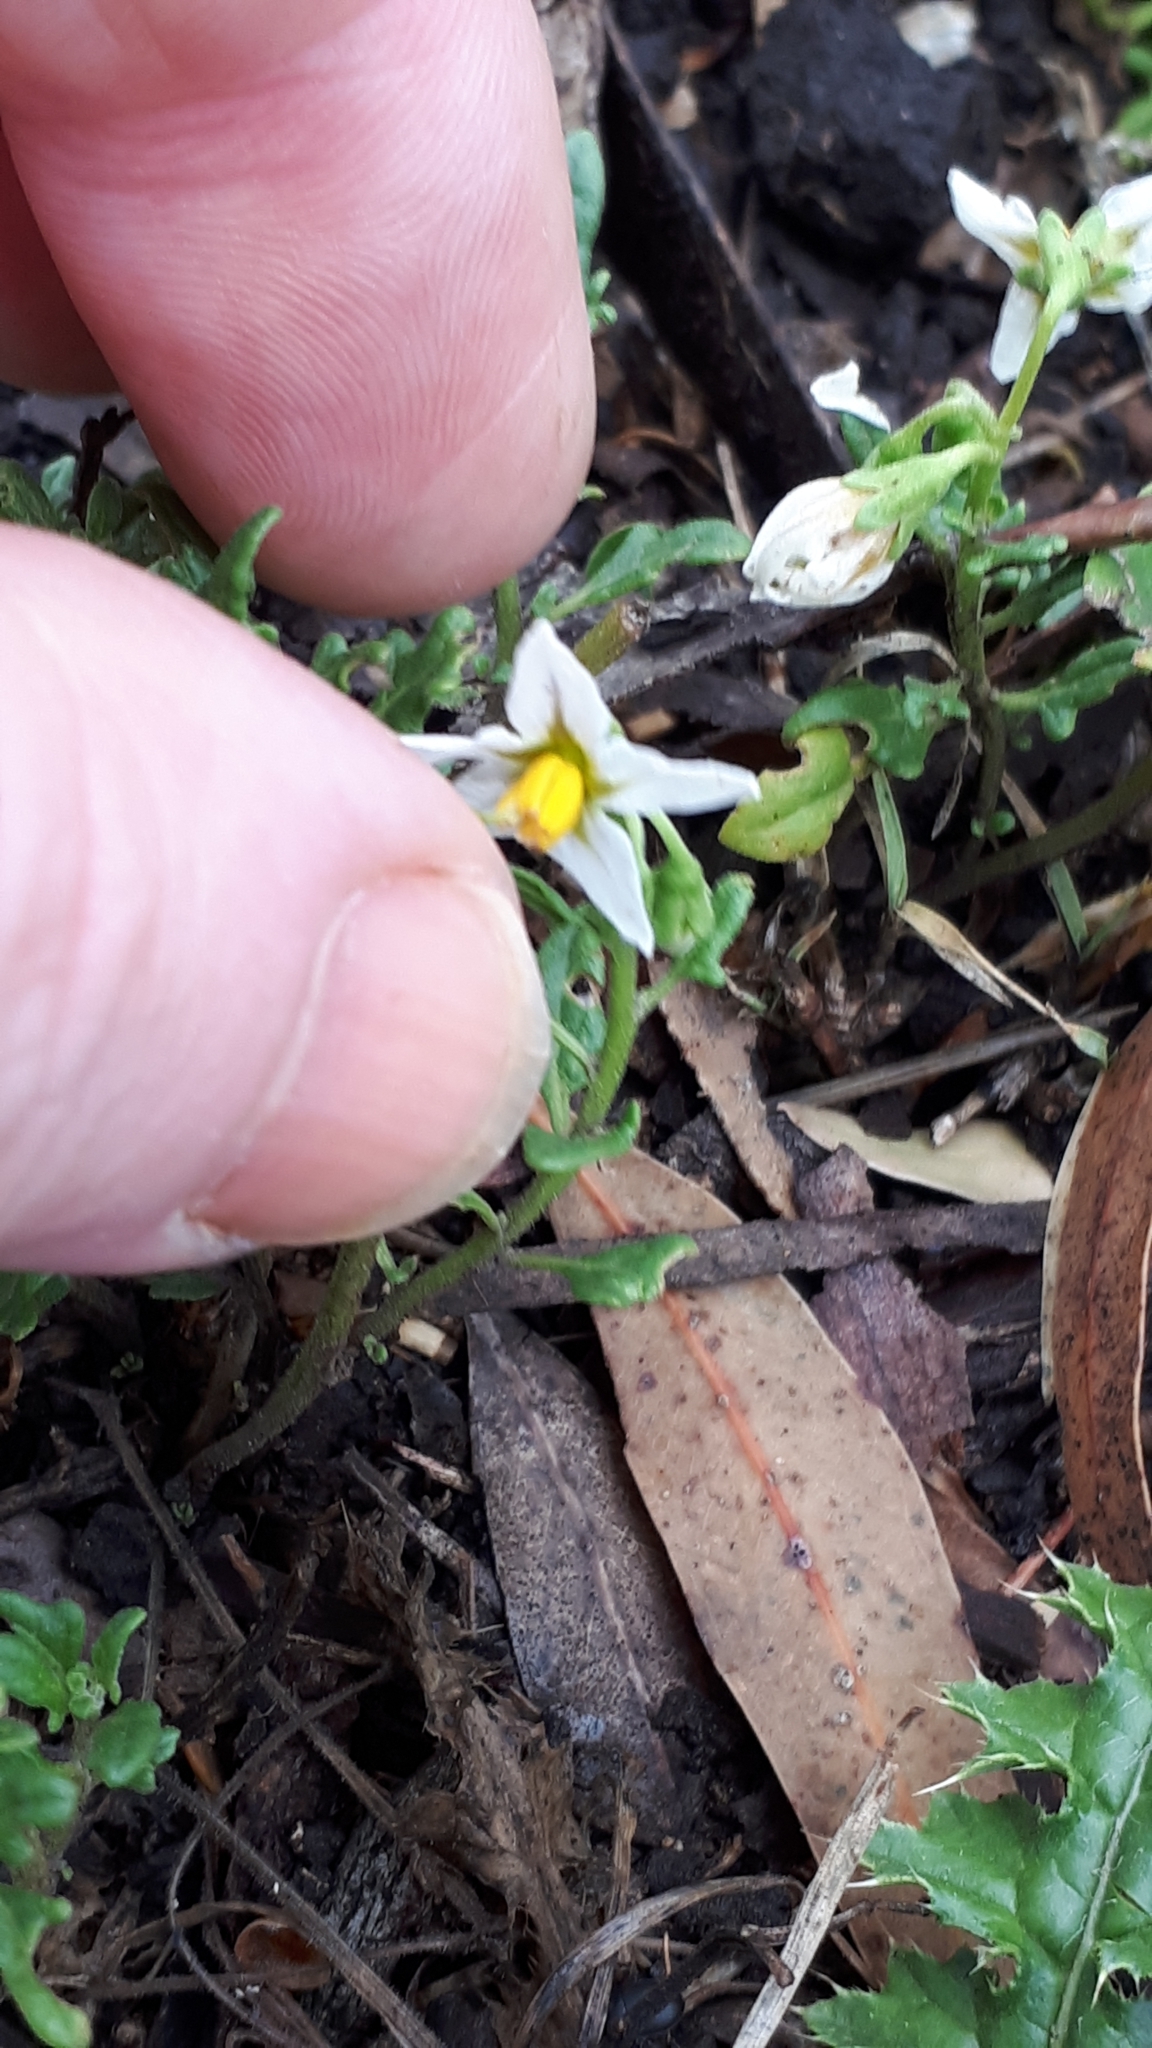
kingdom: Plantae
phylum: Tracheophyta
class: Magnoliopsida
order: Solanales
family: Solanaceae
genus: Solanum
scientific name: Solanum triflorum
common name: Small nightshade
